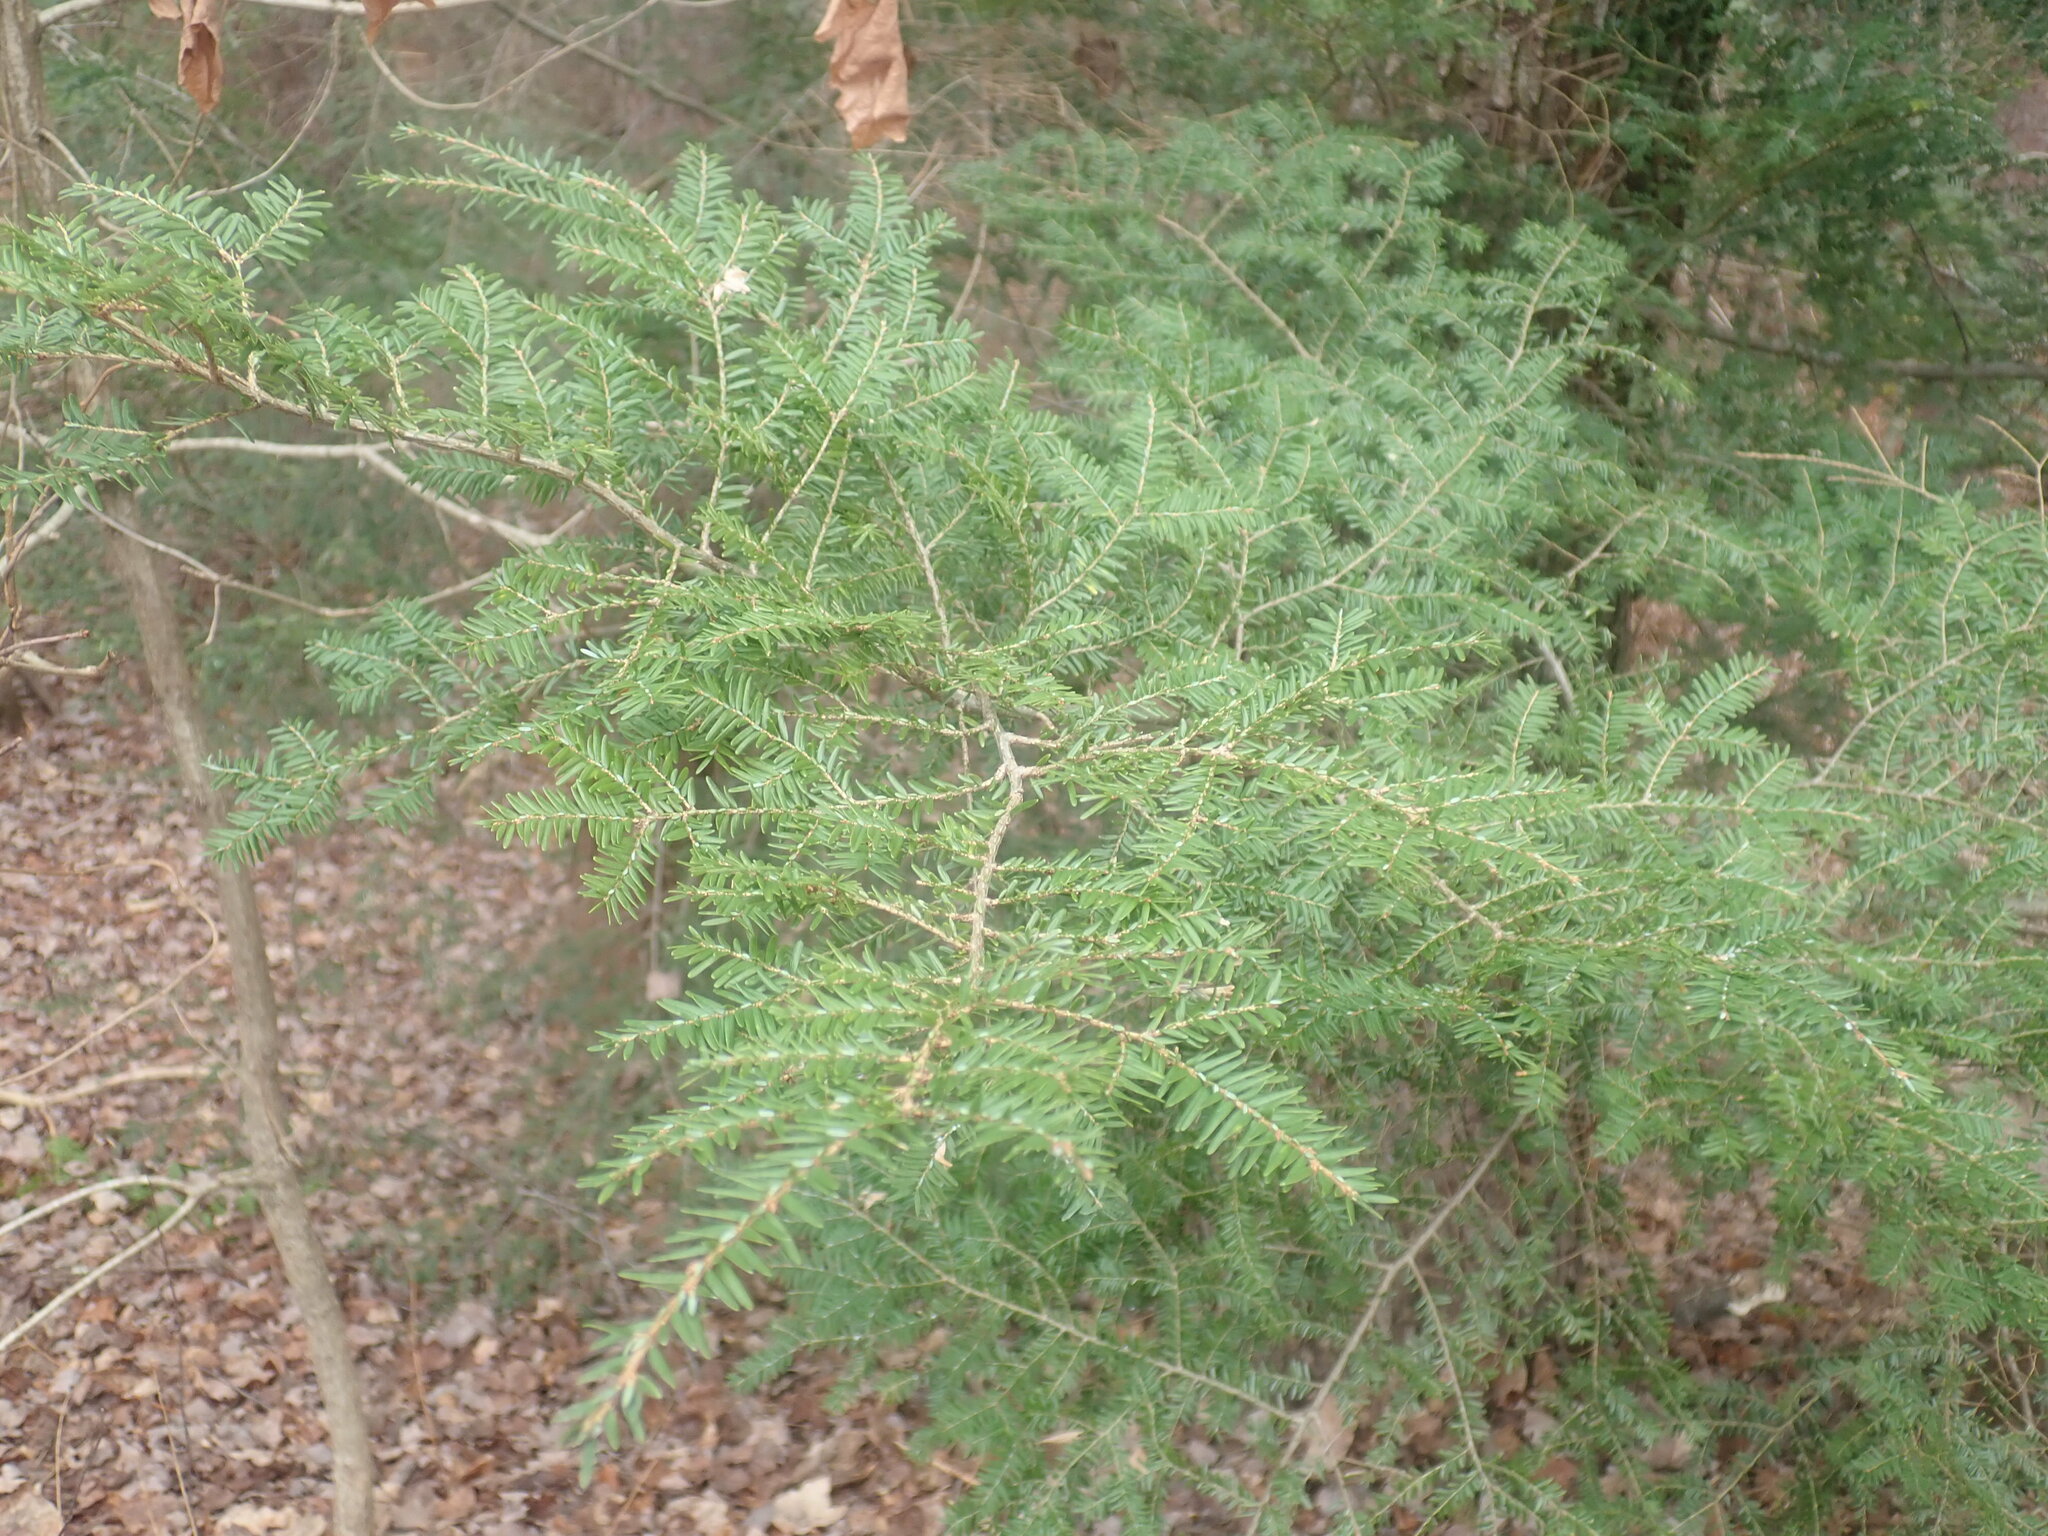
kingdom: Plantae
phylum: Tracheophyta
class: Pinopsida
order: Pinales
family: Pinaceae
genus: Tsuga
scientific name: Tsuga canadensis
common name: Eastern hemlock
